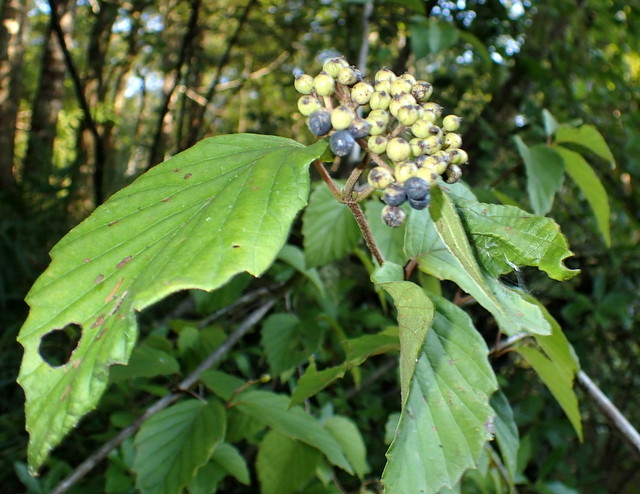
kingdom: Plantae
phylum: Tracheophyta
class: Magnoliopsida
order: Dipsacales
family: Viburnaceae
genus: Viburnum
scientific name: Viburnum scabrellum
